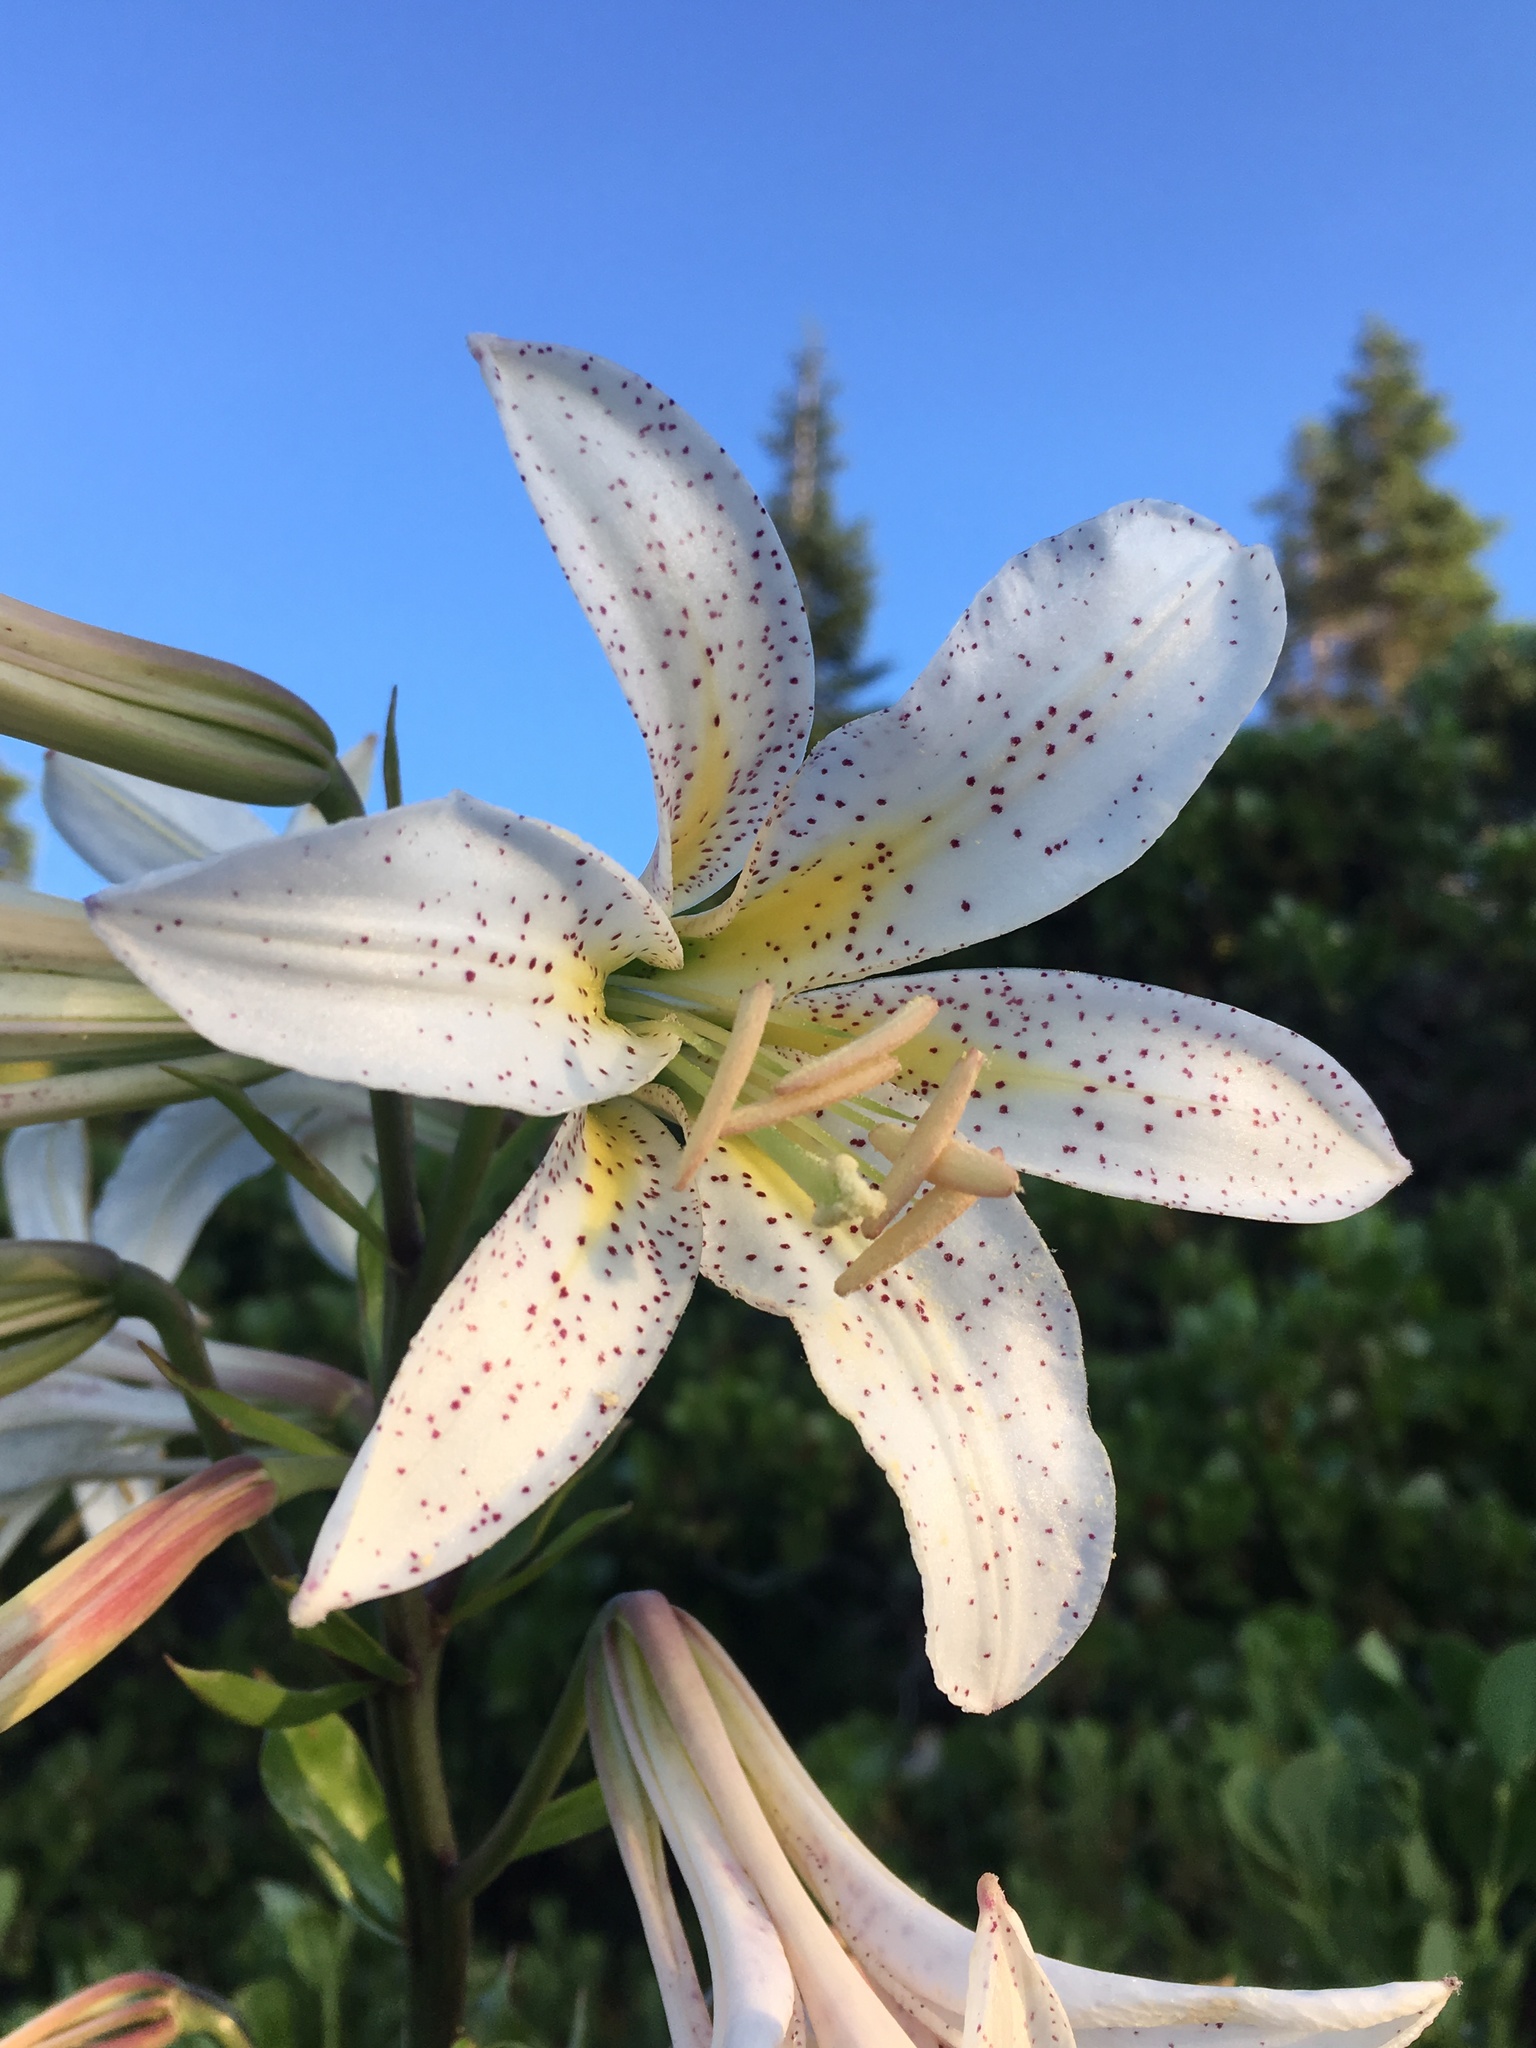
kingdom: Plantae
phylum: Tracheophyta
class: Liliopsida
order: Liliales
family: Liliaceae
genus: Lilium
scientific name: Lilium washingtonianum
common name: Washington lily
